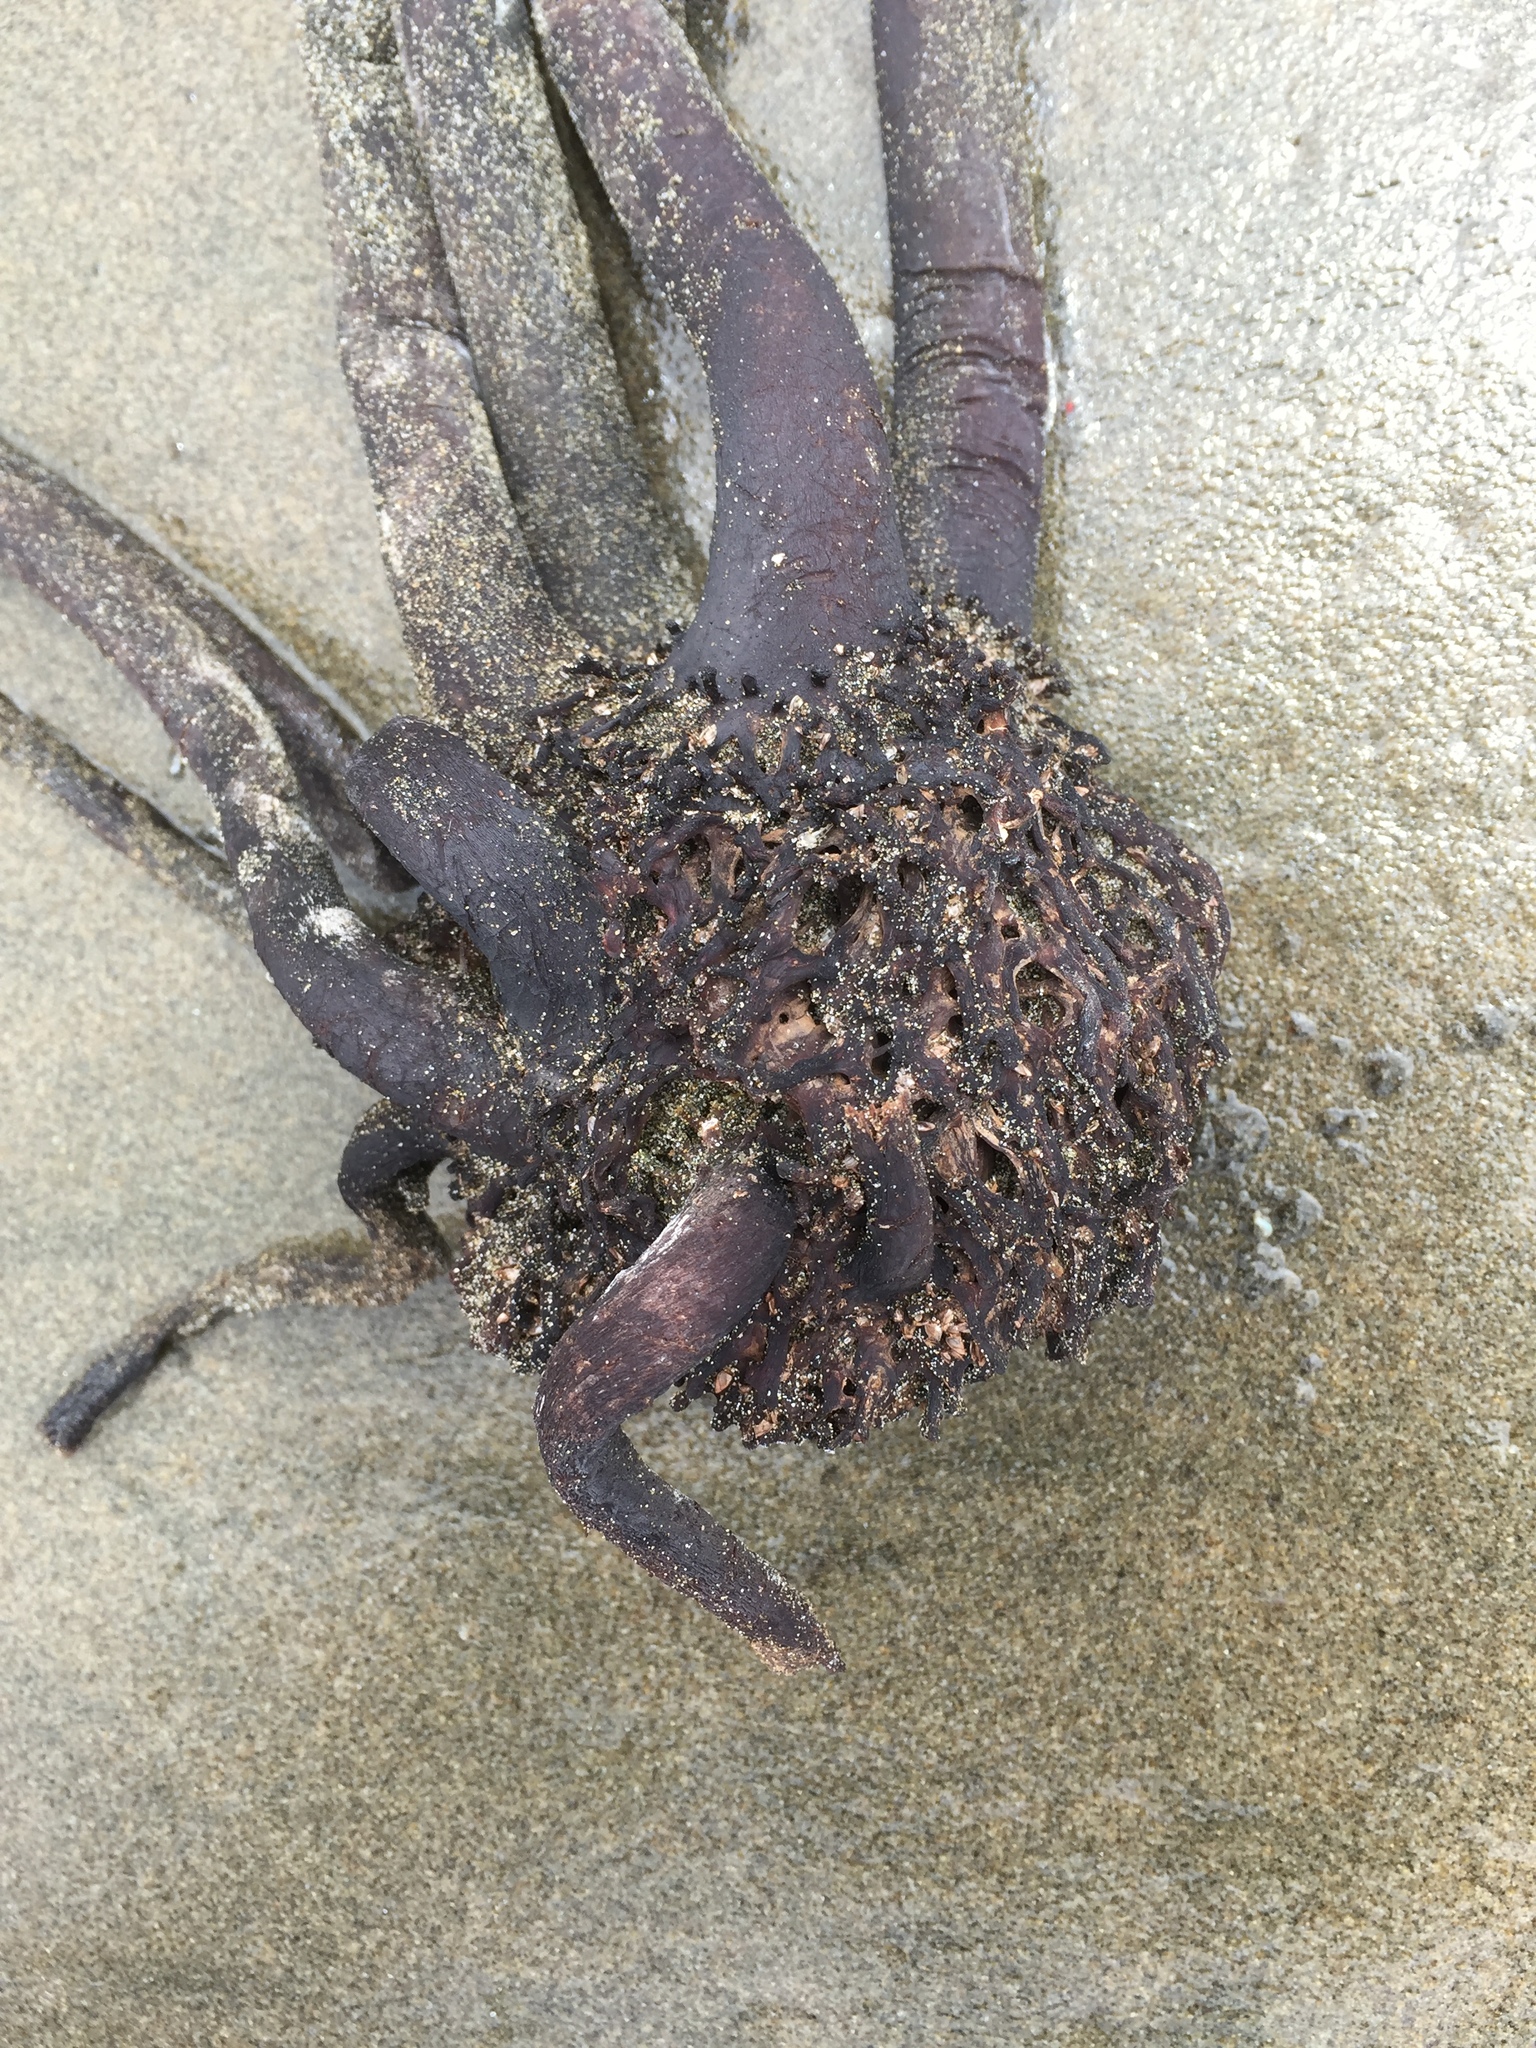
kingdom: Chromista
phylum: Ochrophyta
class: Phaeophyceae
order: Laminariales
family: Laminariaceae
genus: Postelsia
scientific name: Postelsia palmiformis
